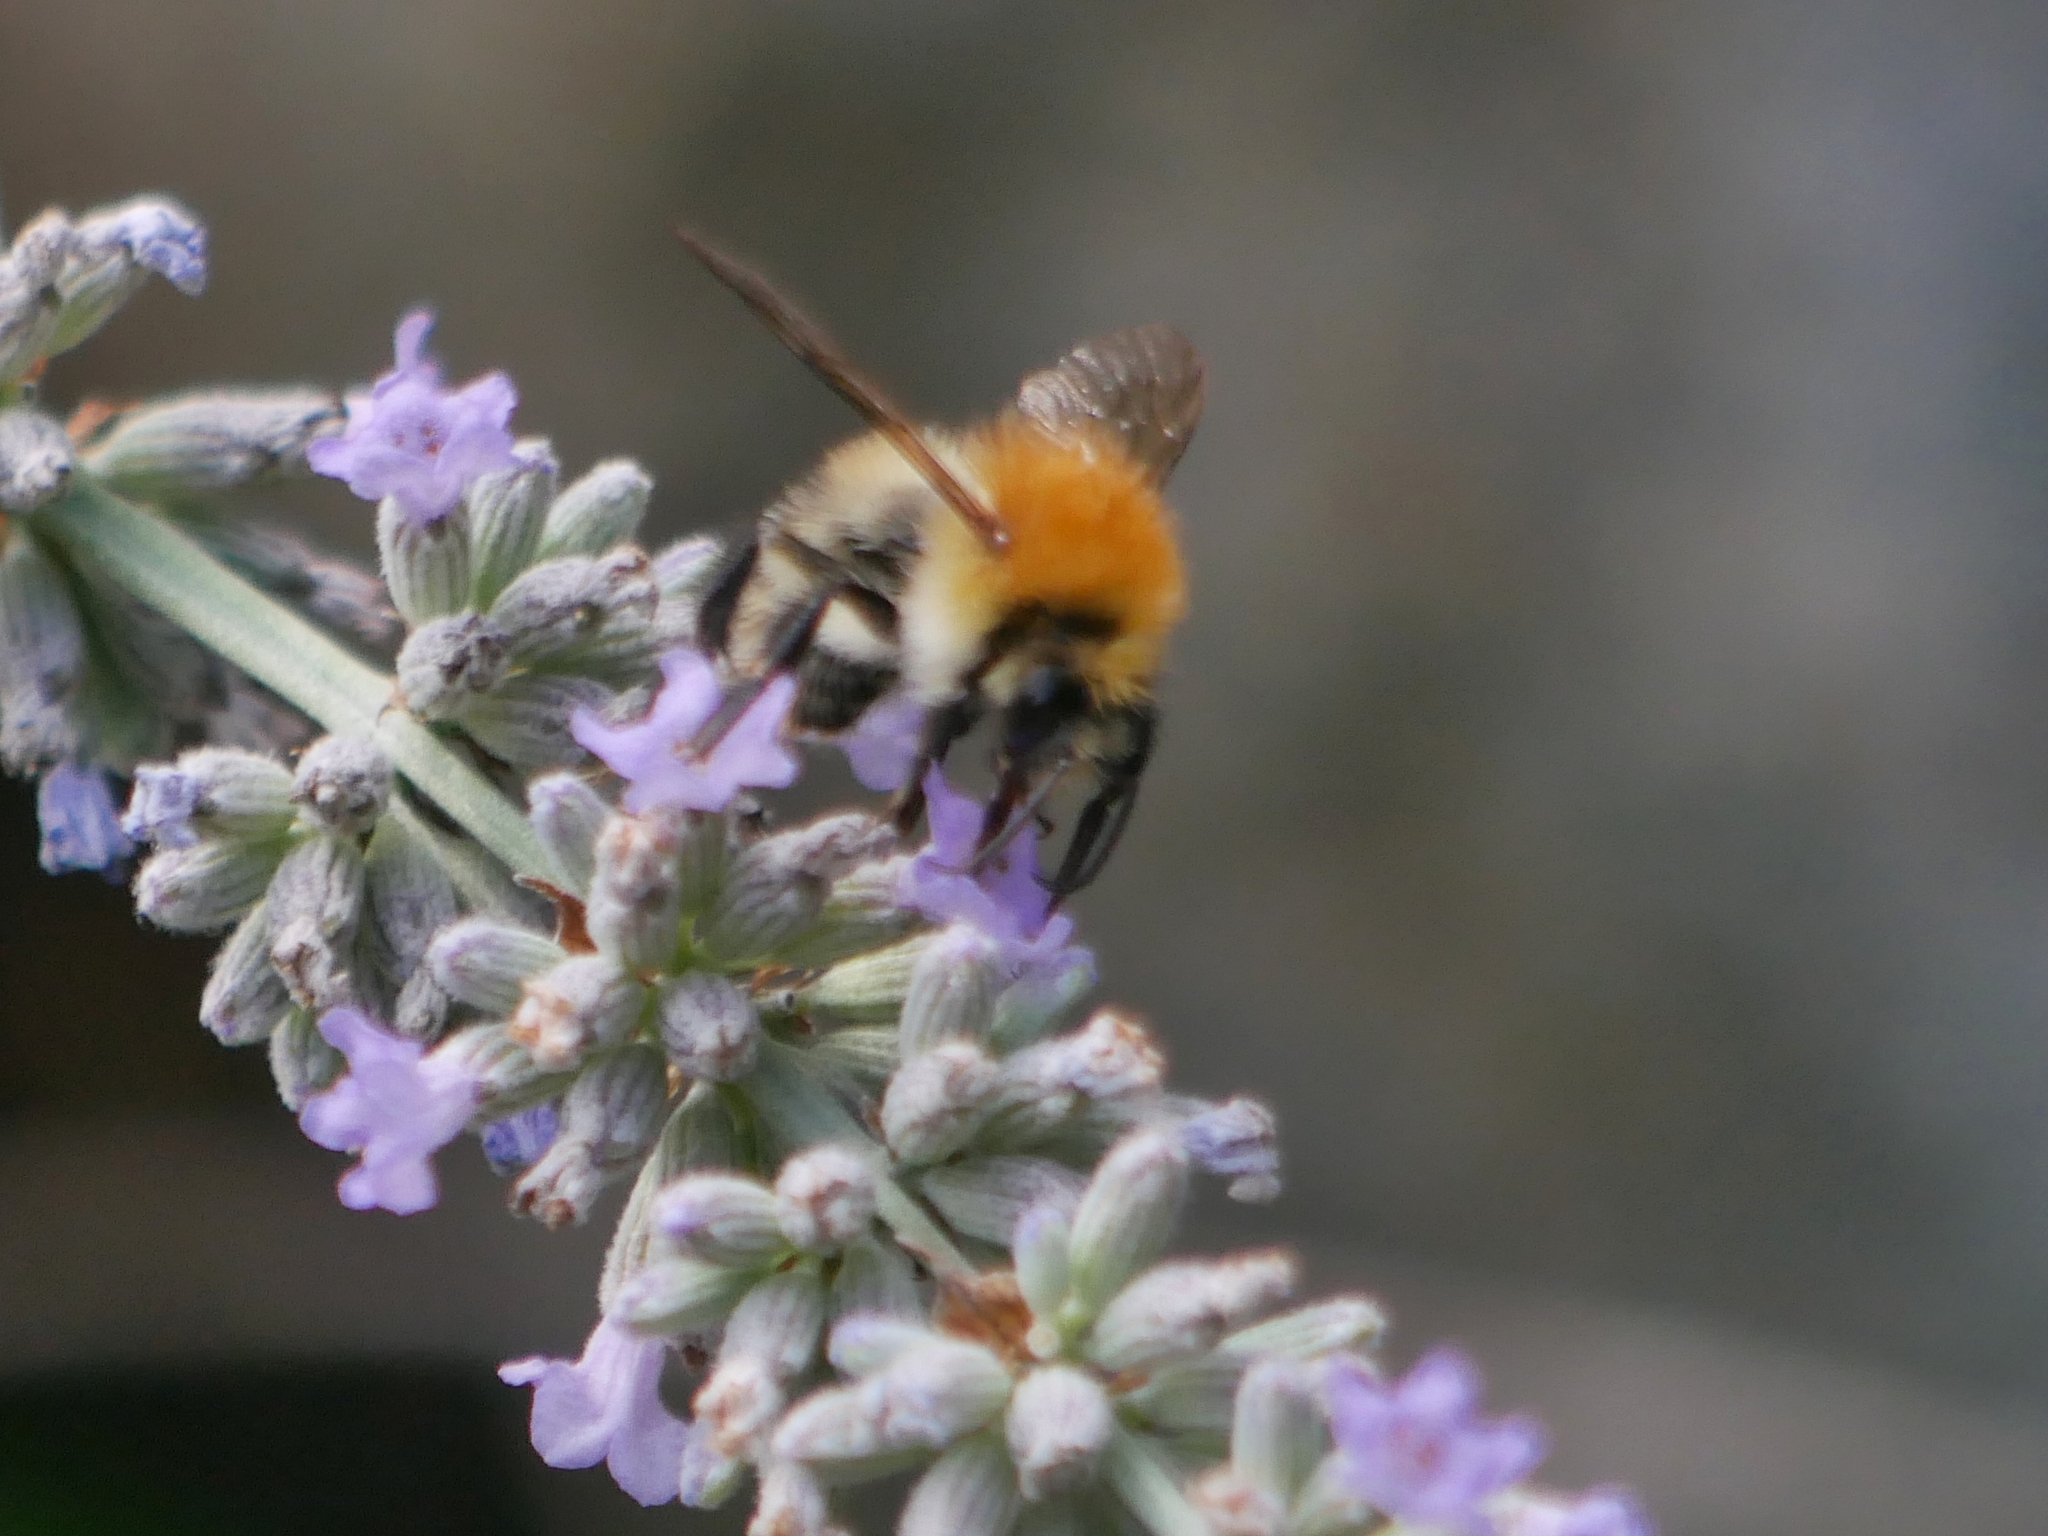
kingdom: Animalia
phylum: Arthropoda
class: Insecta
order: Hymenoptera
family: Apidae
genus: Bombus
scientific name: Bombus pascuorum
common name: Common carder bee
